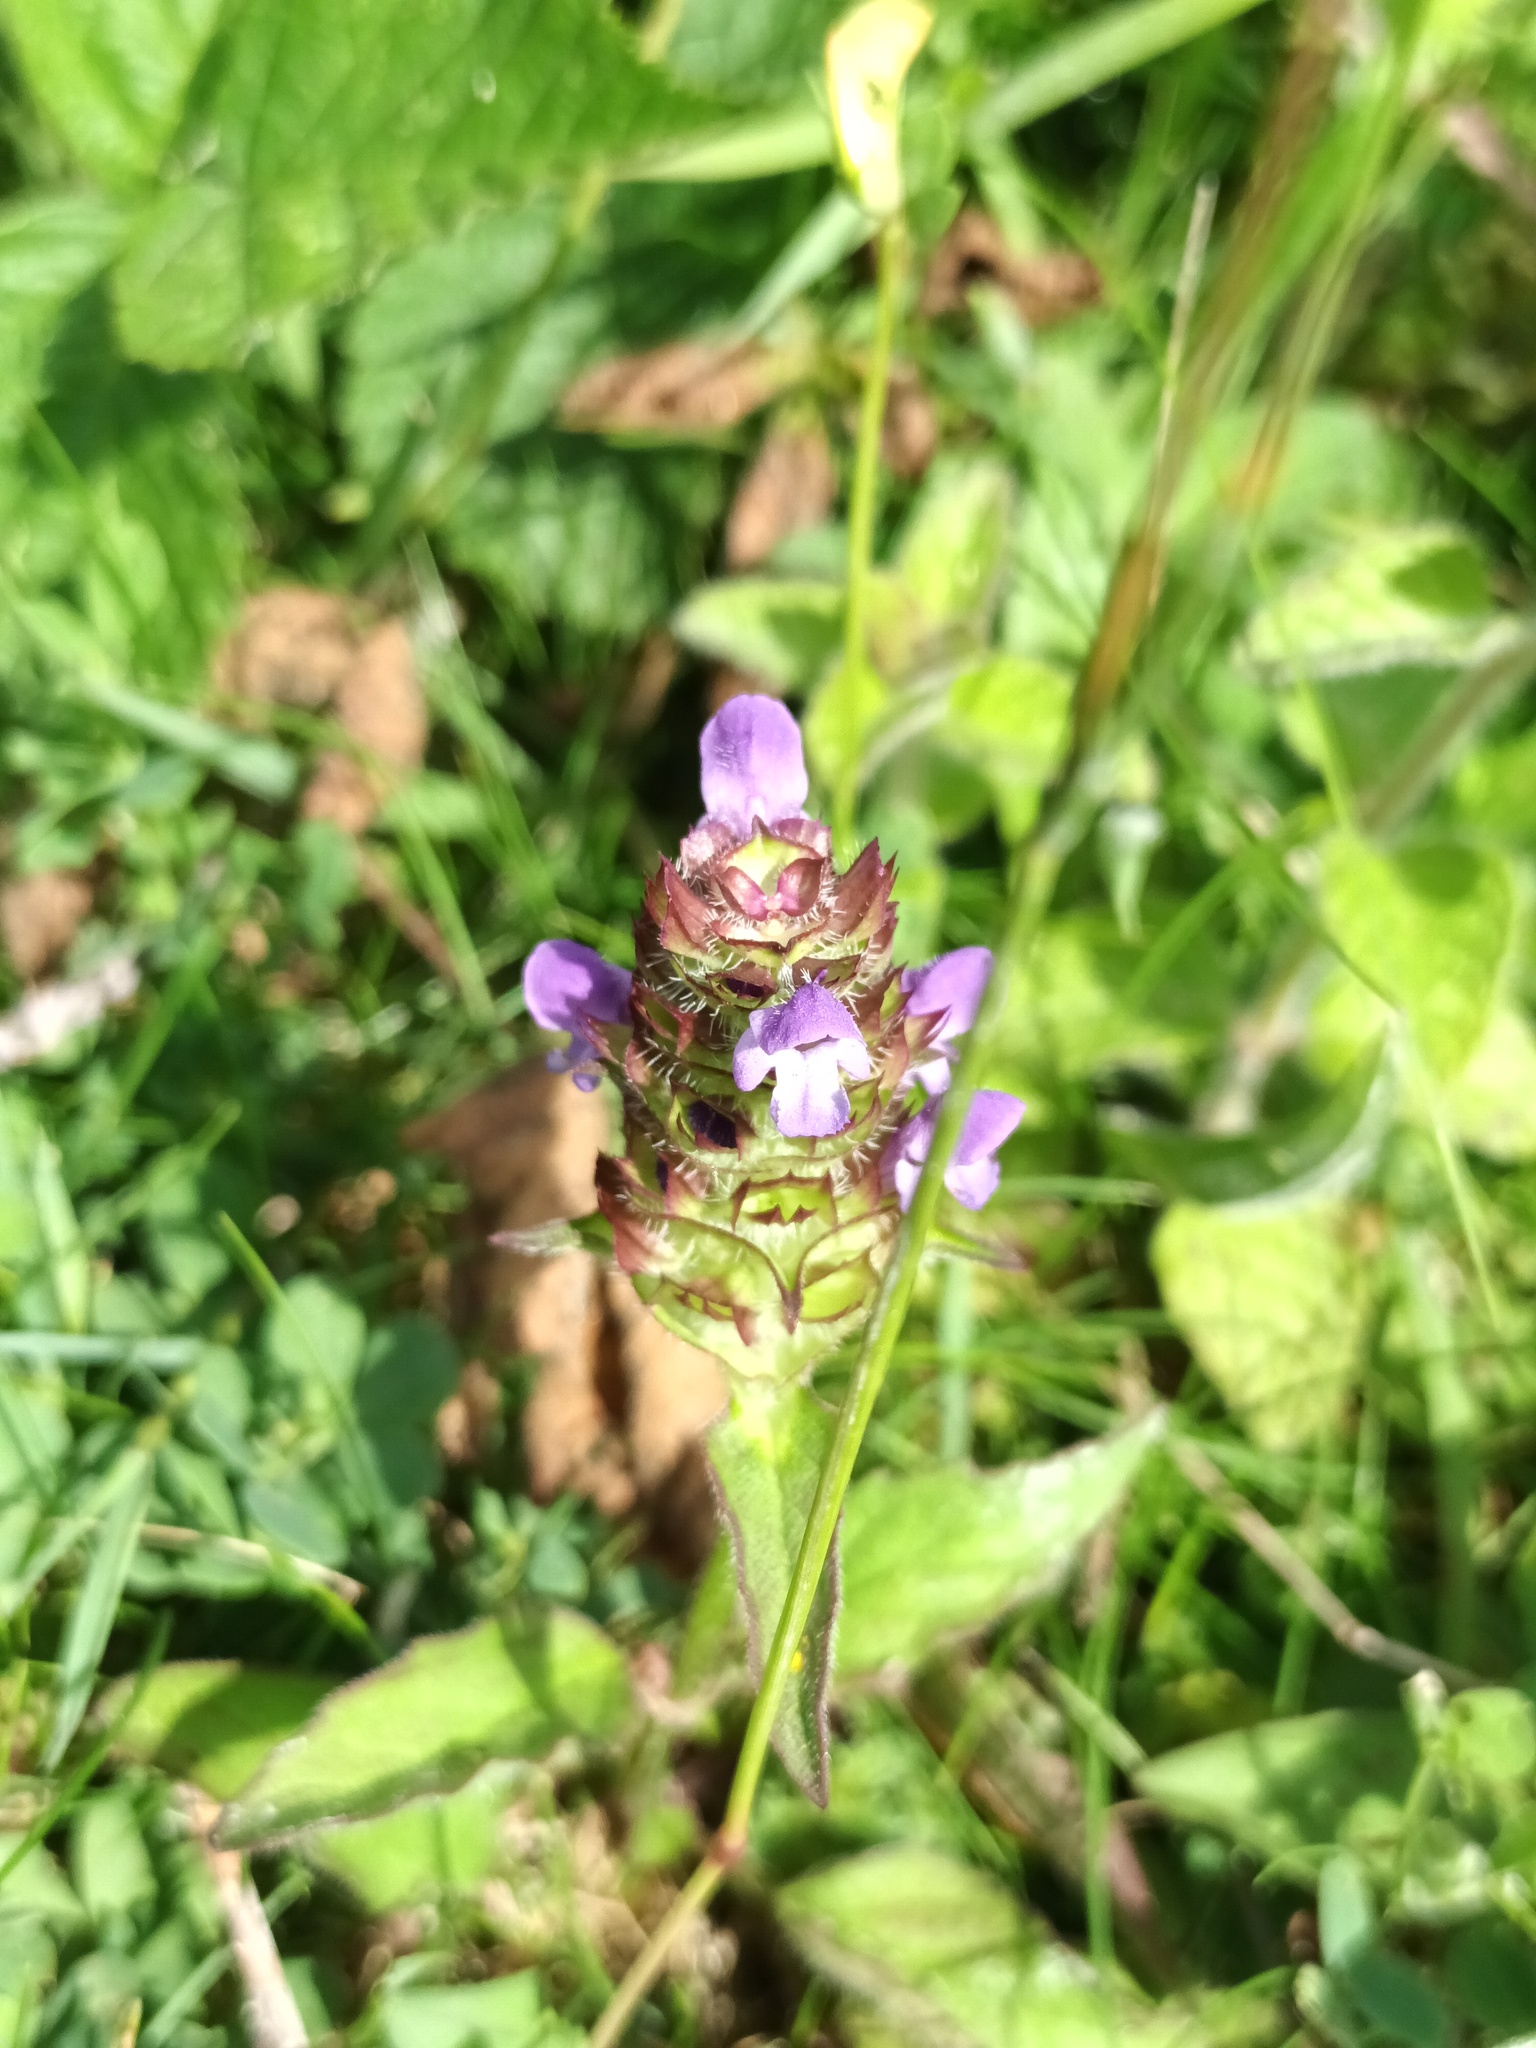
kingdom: Plantae
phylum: Tracheophyta
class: Magnoliopsida
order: Lamiales
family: Lamiaceae
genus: Prunella
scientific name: Prunella vulgaris
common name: Heal-all
